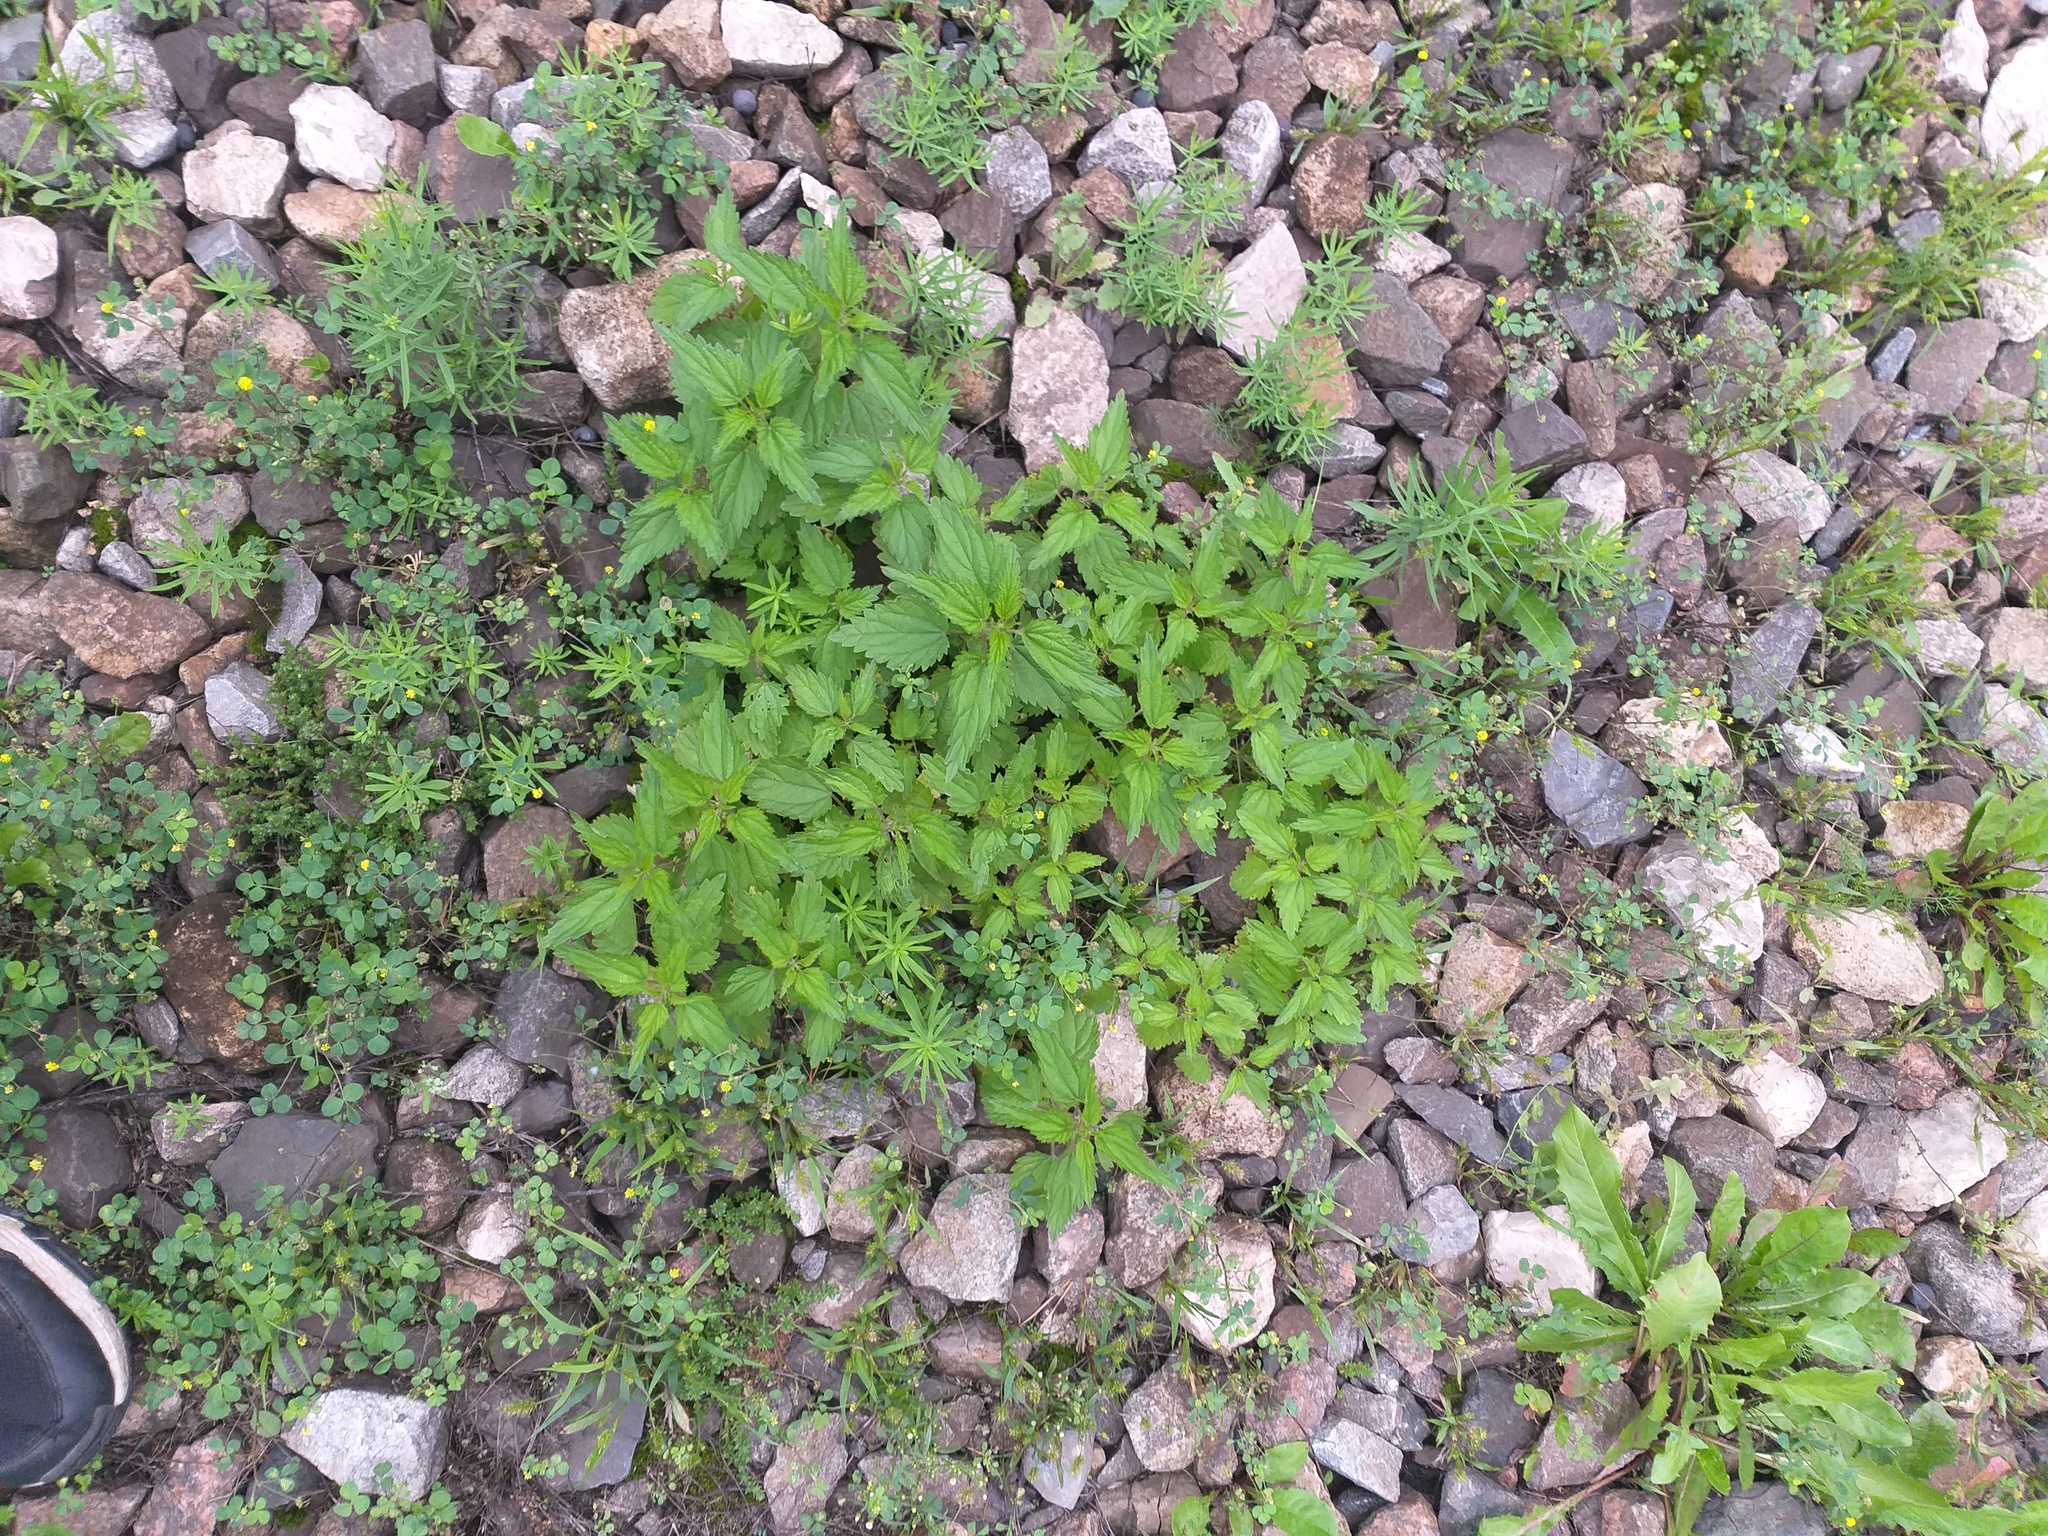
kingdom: Plantae
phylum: Tracheophyta
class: Magnoliopsida
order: Rosales
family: Urticaceae
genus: Urtica
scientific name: Urtica dioica
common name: Common nettle
